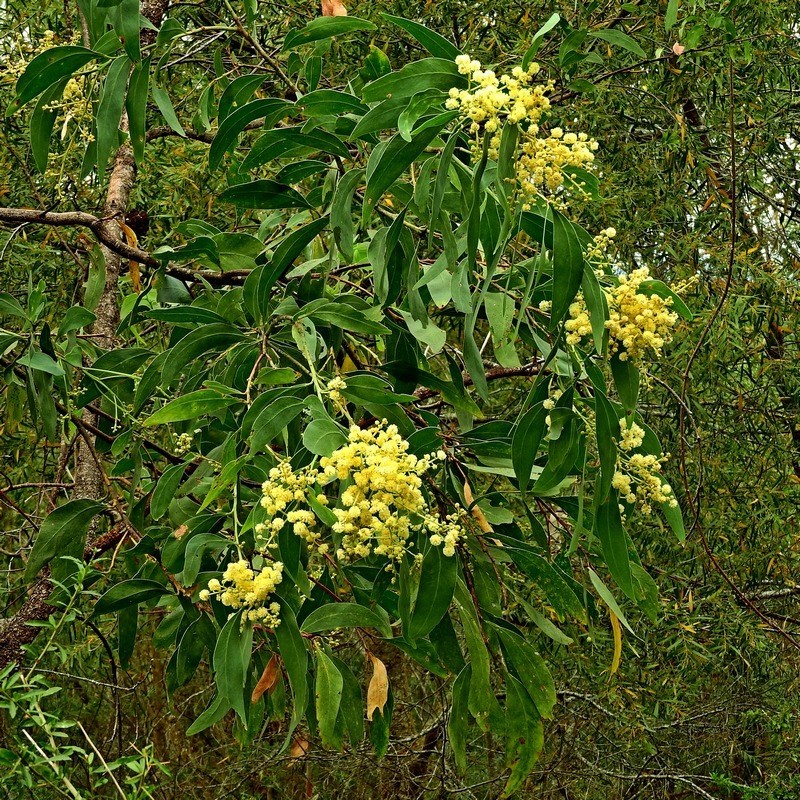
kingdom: Plantae
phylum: Tracheophyta
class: Magnoliopsida
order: Fabales
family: Fabaceae
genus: Acacia
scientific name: Acacia falciformis
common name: Tanning wattle
